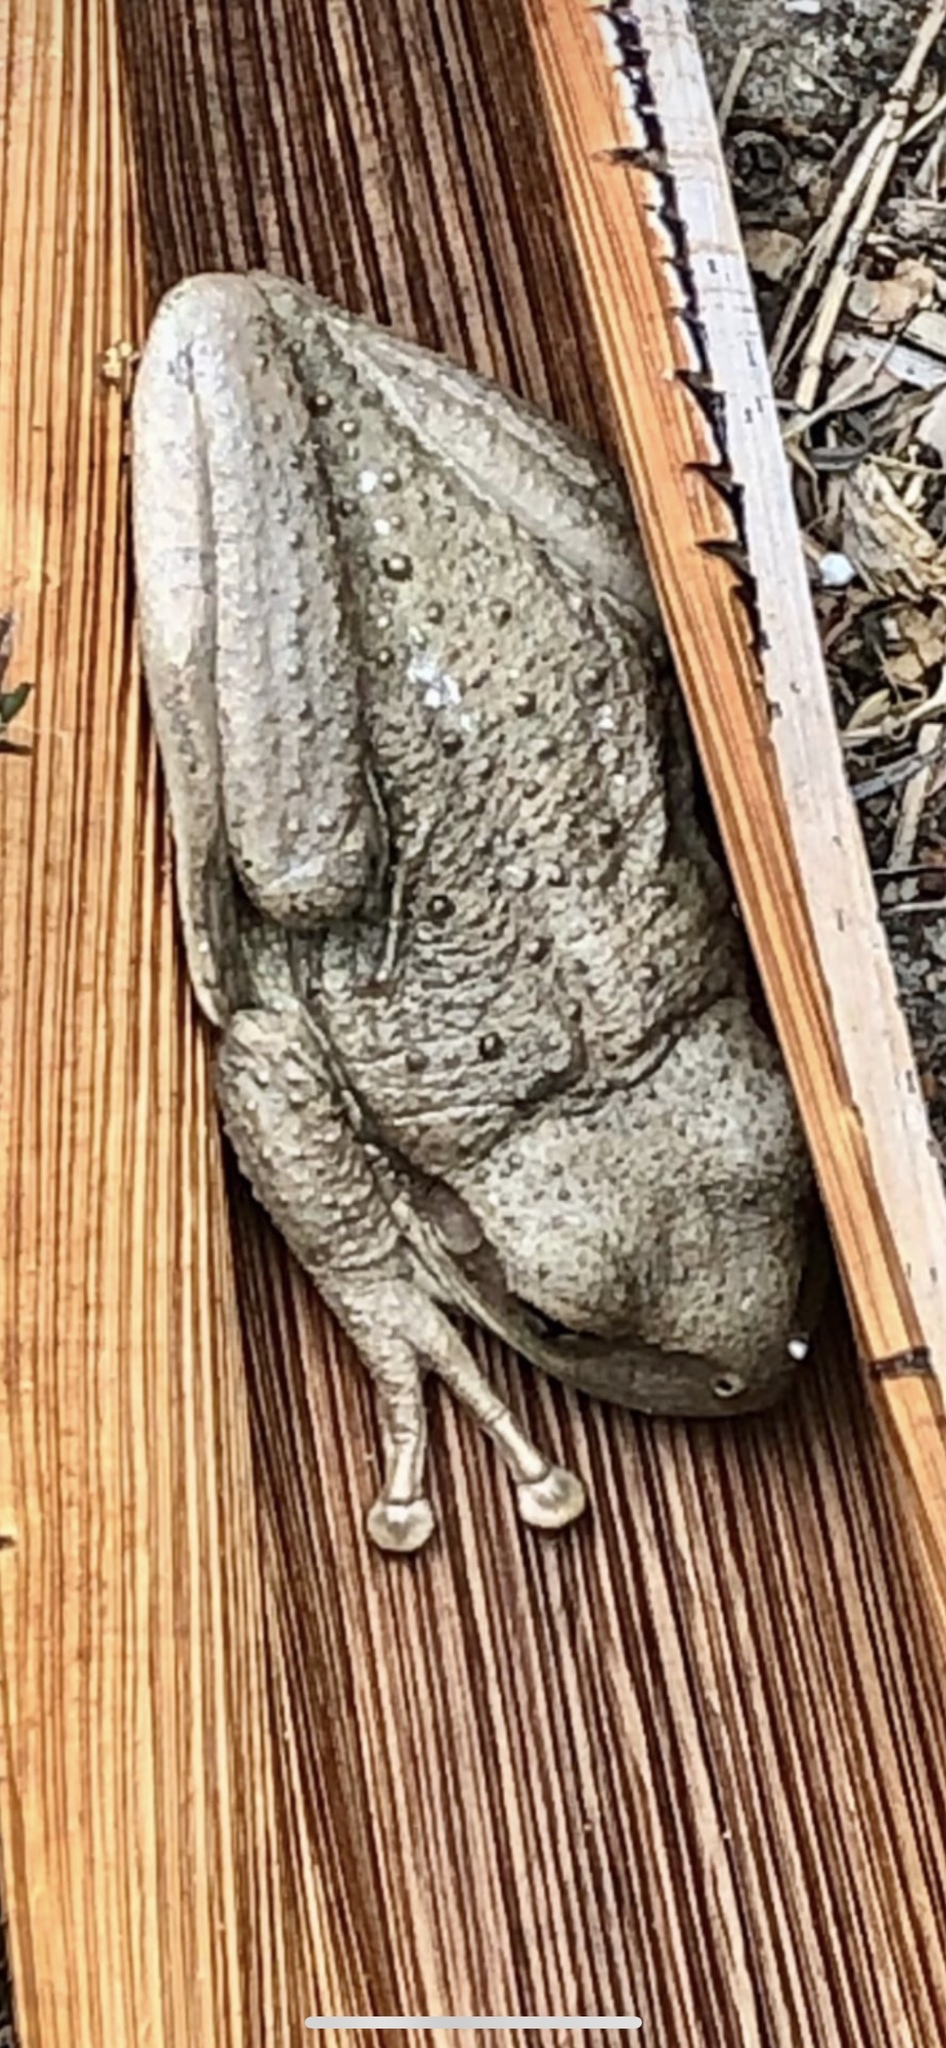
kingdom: Animalia
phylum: Chordata
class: Amphibia
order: Anura
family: Hylidae
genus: Osteopilus
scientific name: Osteopilus septentrionalis
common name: Cuban treefrog
